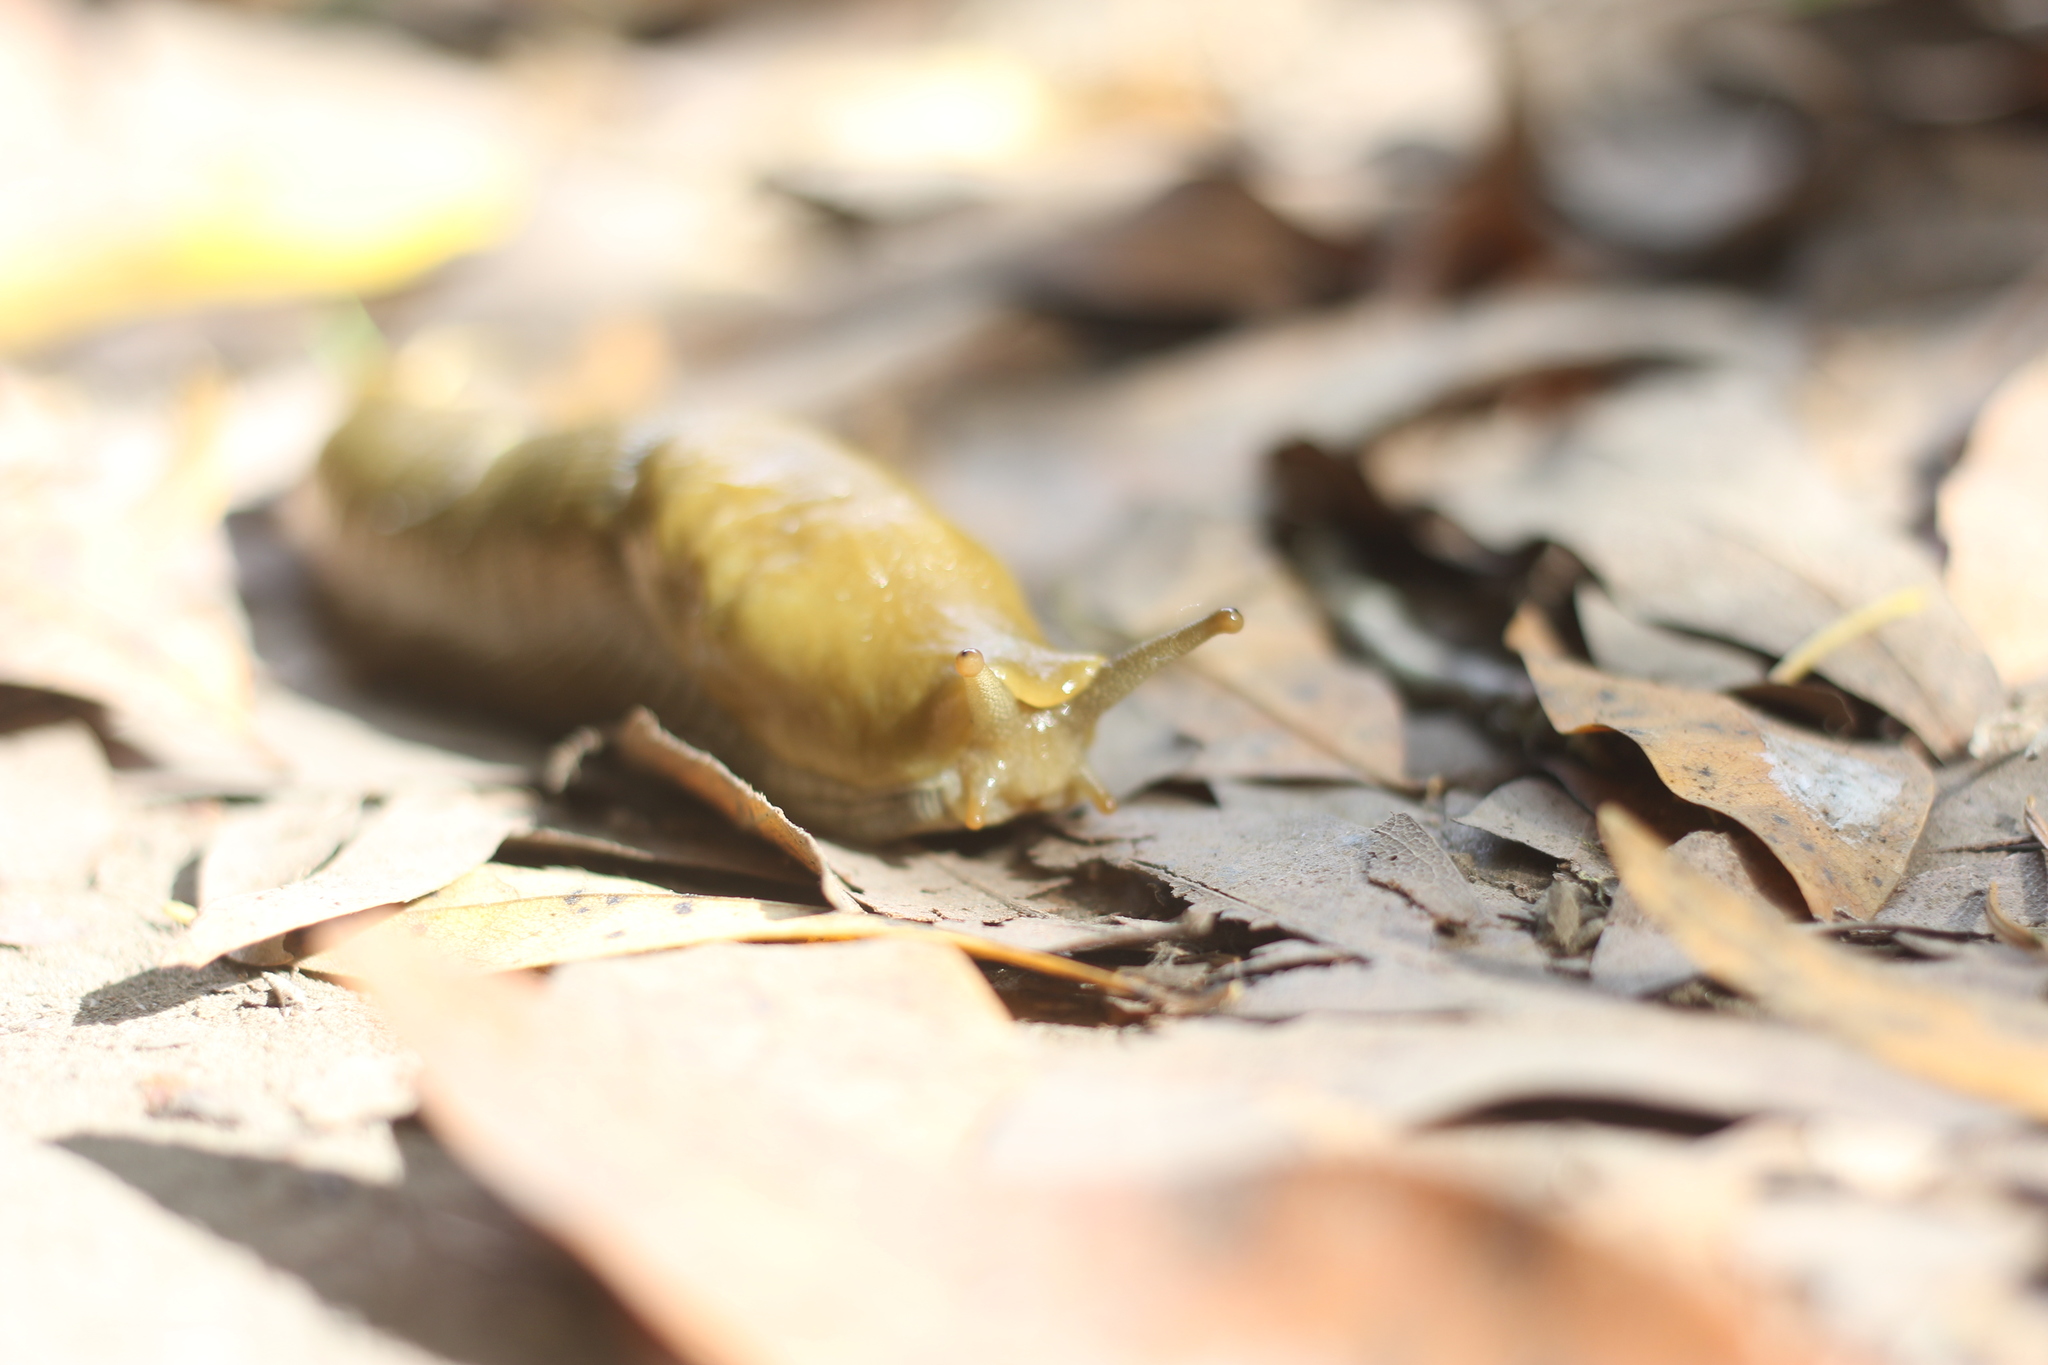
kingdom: Animalia
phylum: Mollusca
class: Gastropoda
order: Stylommatophora
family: Ariolimacidae
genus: Ariolimax
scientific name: Ariolimax buttoni
